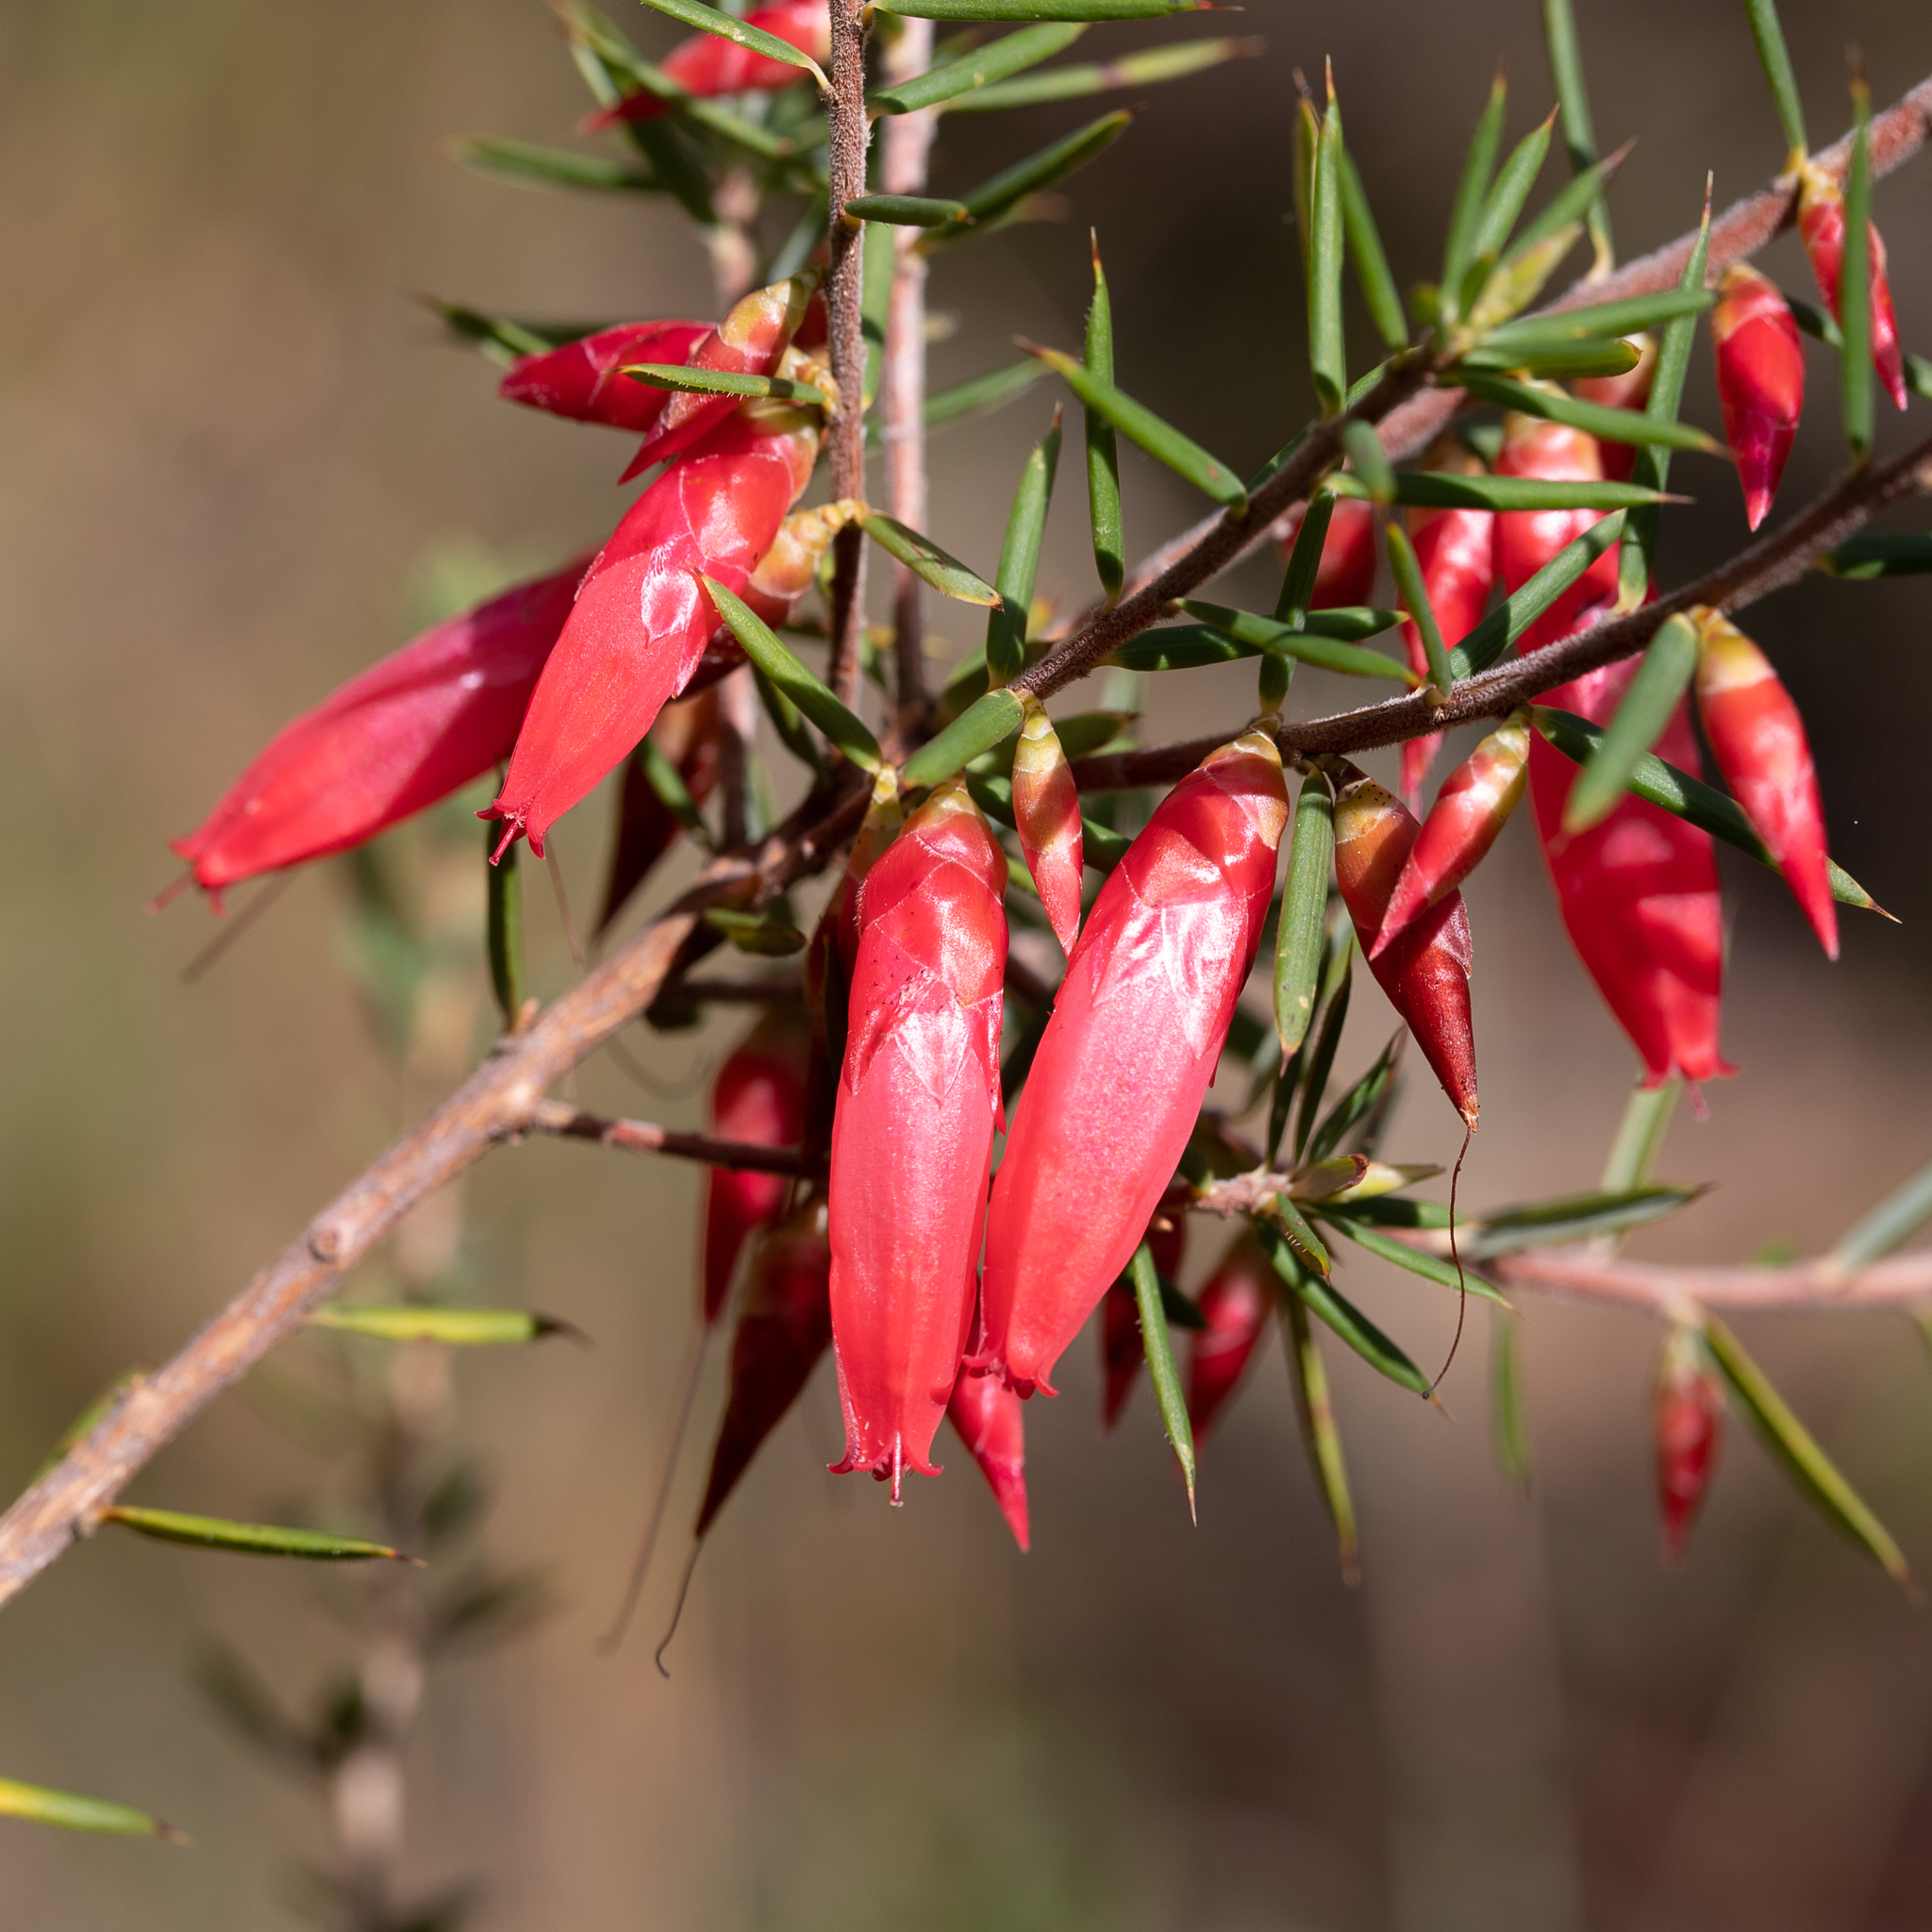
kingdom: Plantae
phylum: Tracheophyta
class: Magnoliopsida
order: Ericales
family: Ericaceae
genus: Stenanthera
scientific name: Stenanthera conostephioides
